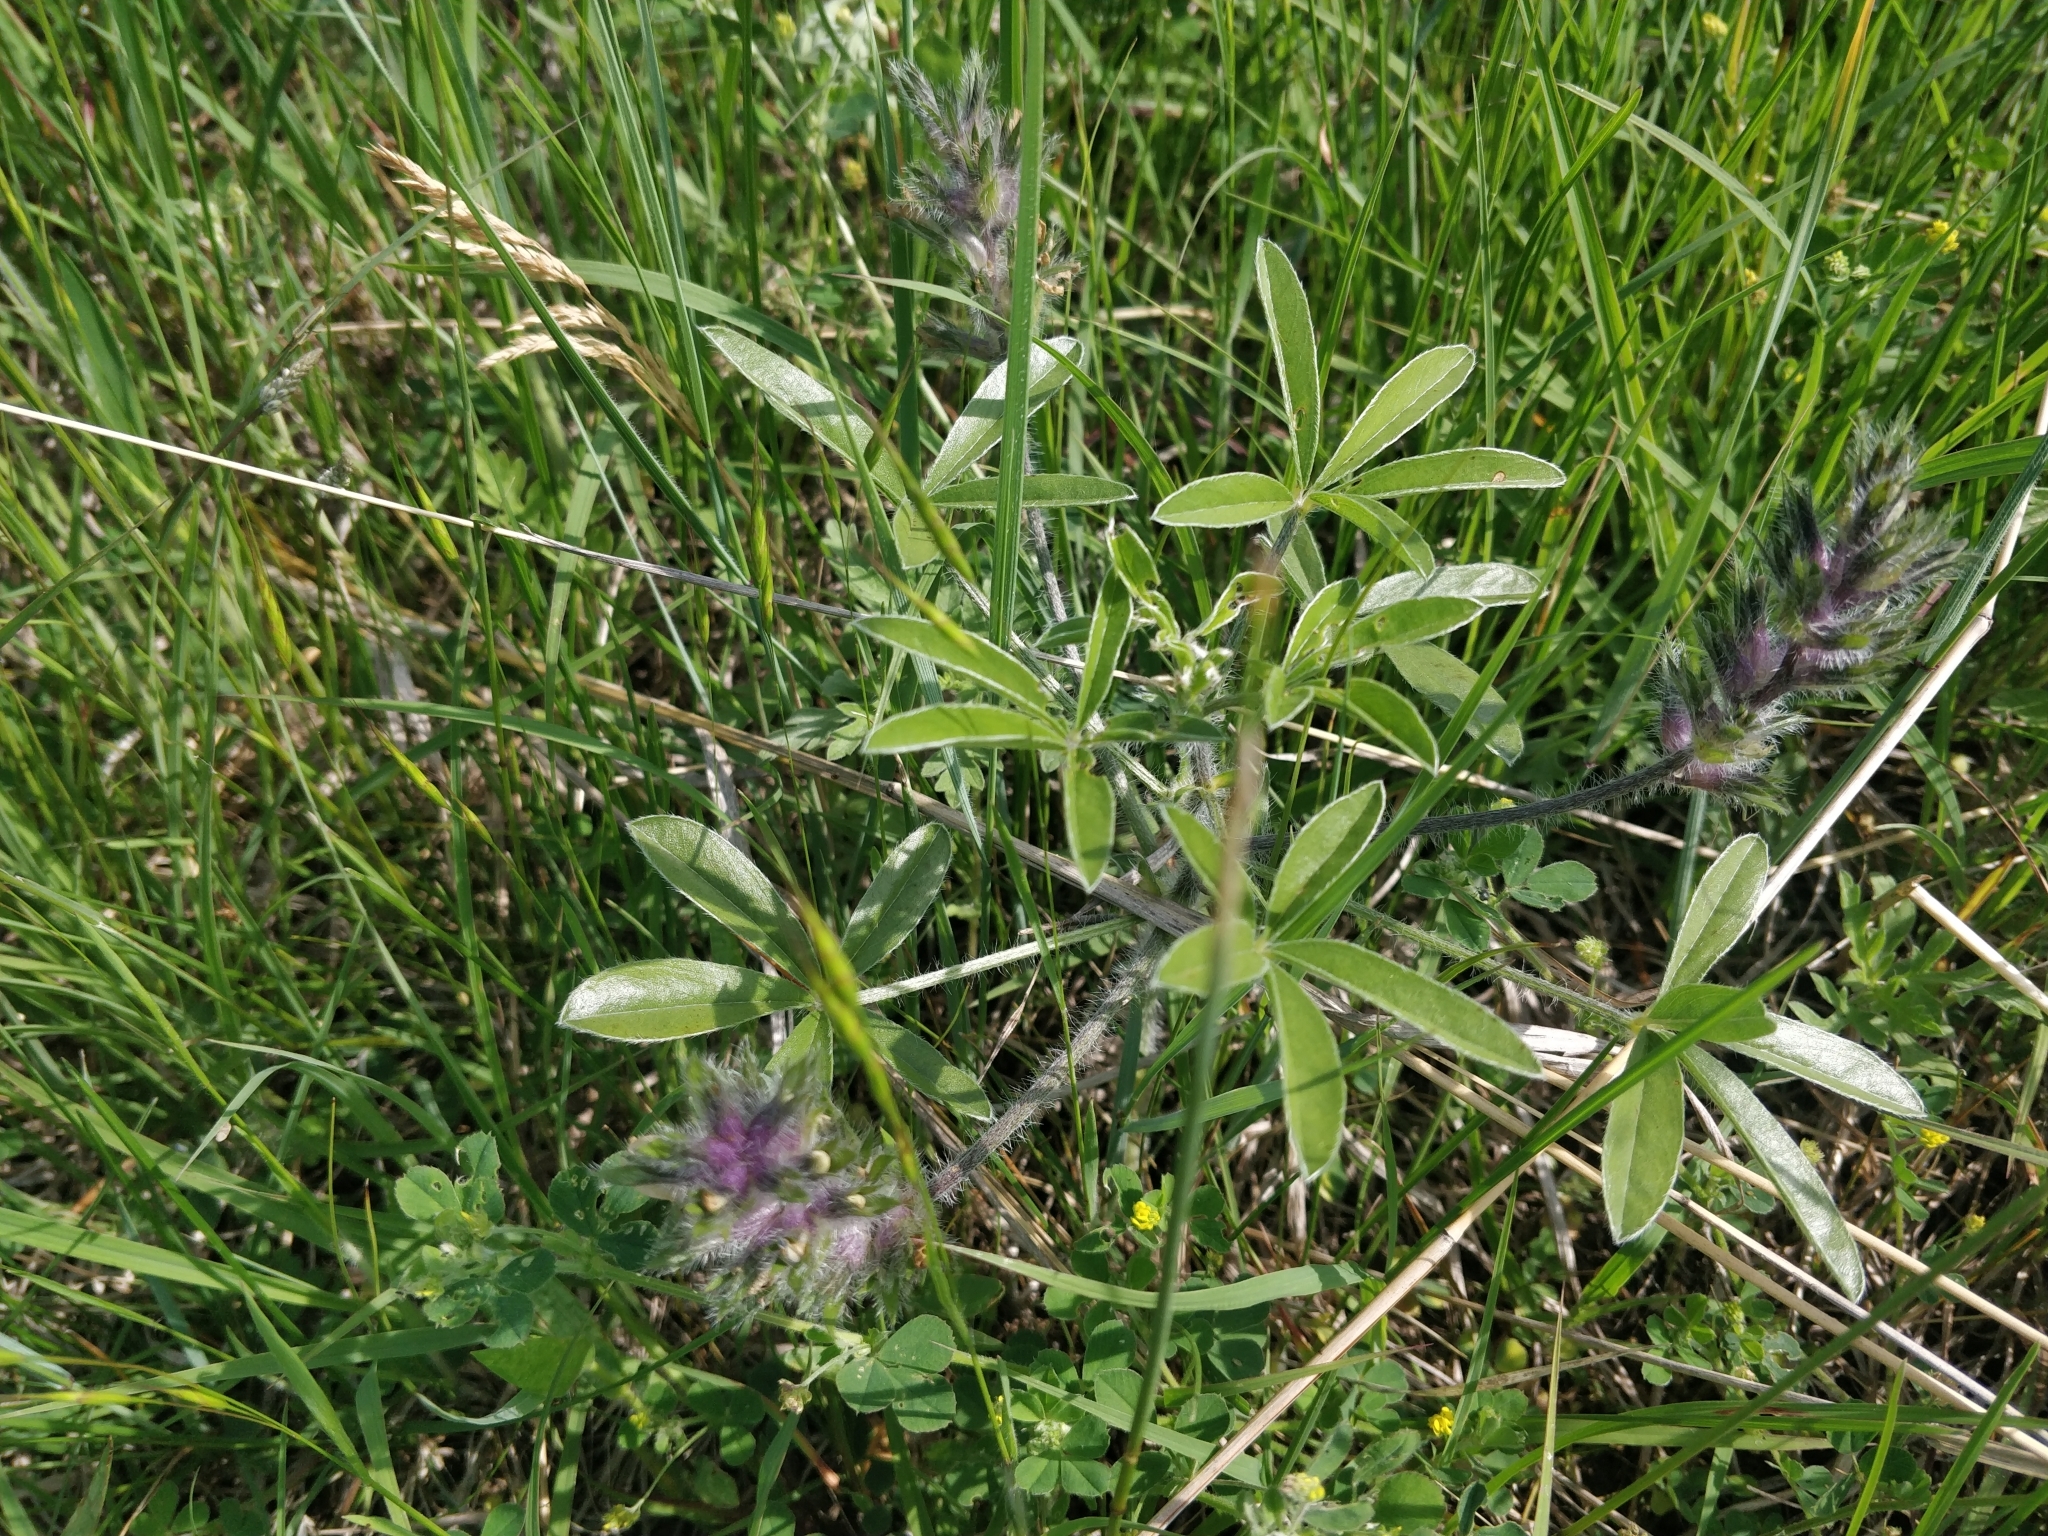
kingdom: Plantae
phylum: Tracheophyta
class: Magnoliopsida
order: Fabales
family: Fabaceae
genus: Pediomelum
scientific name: Pediomelum esculentum
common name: Indian-turnip
